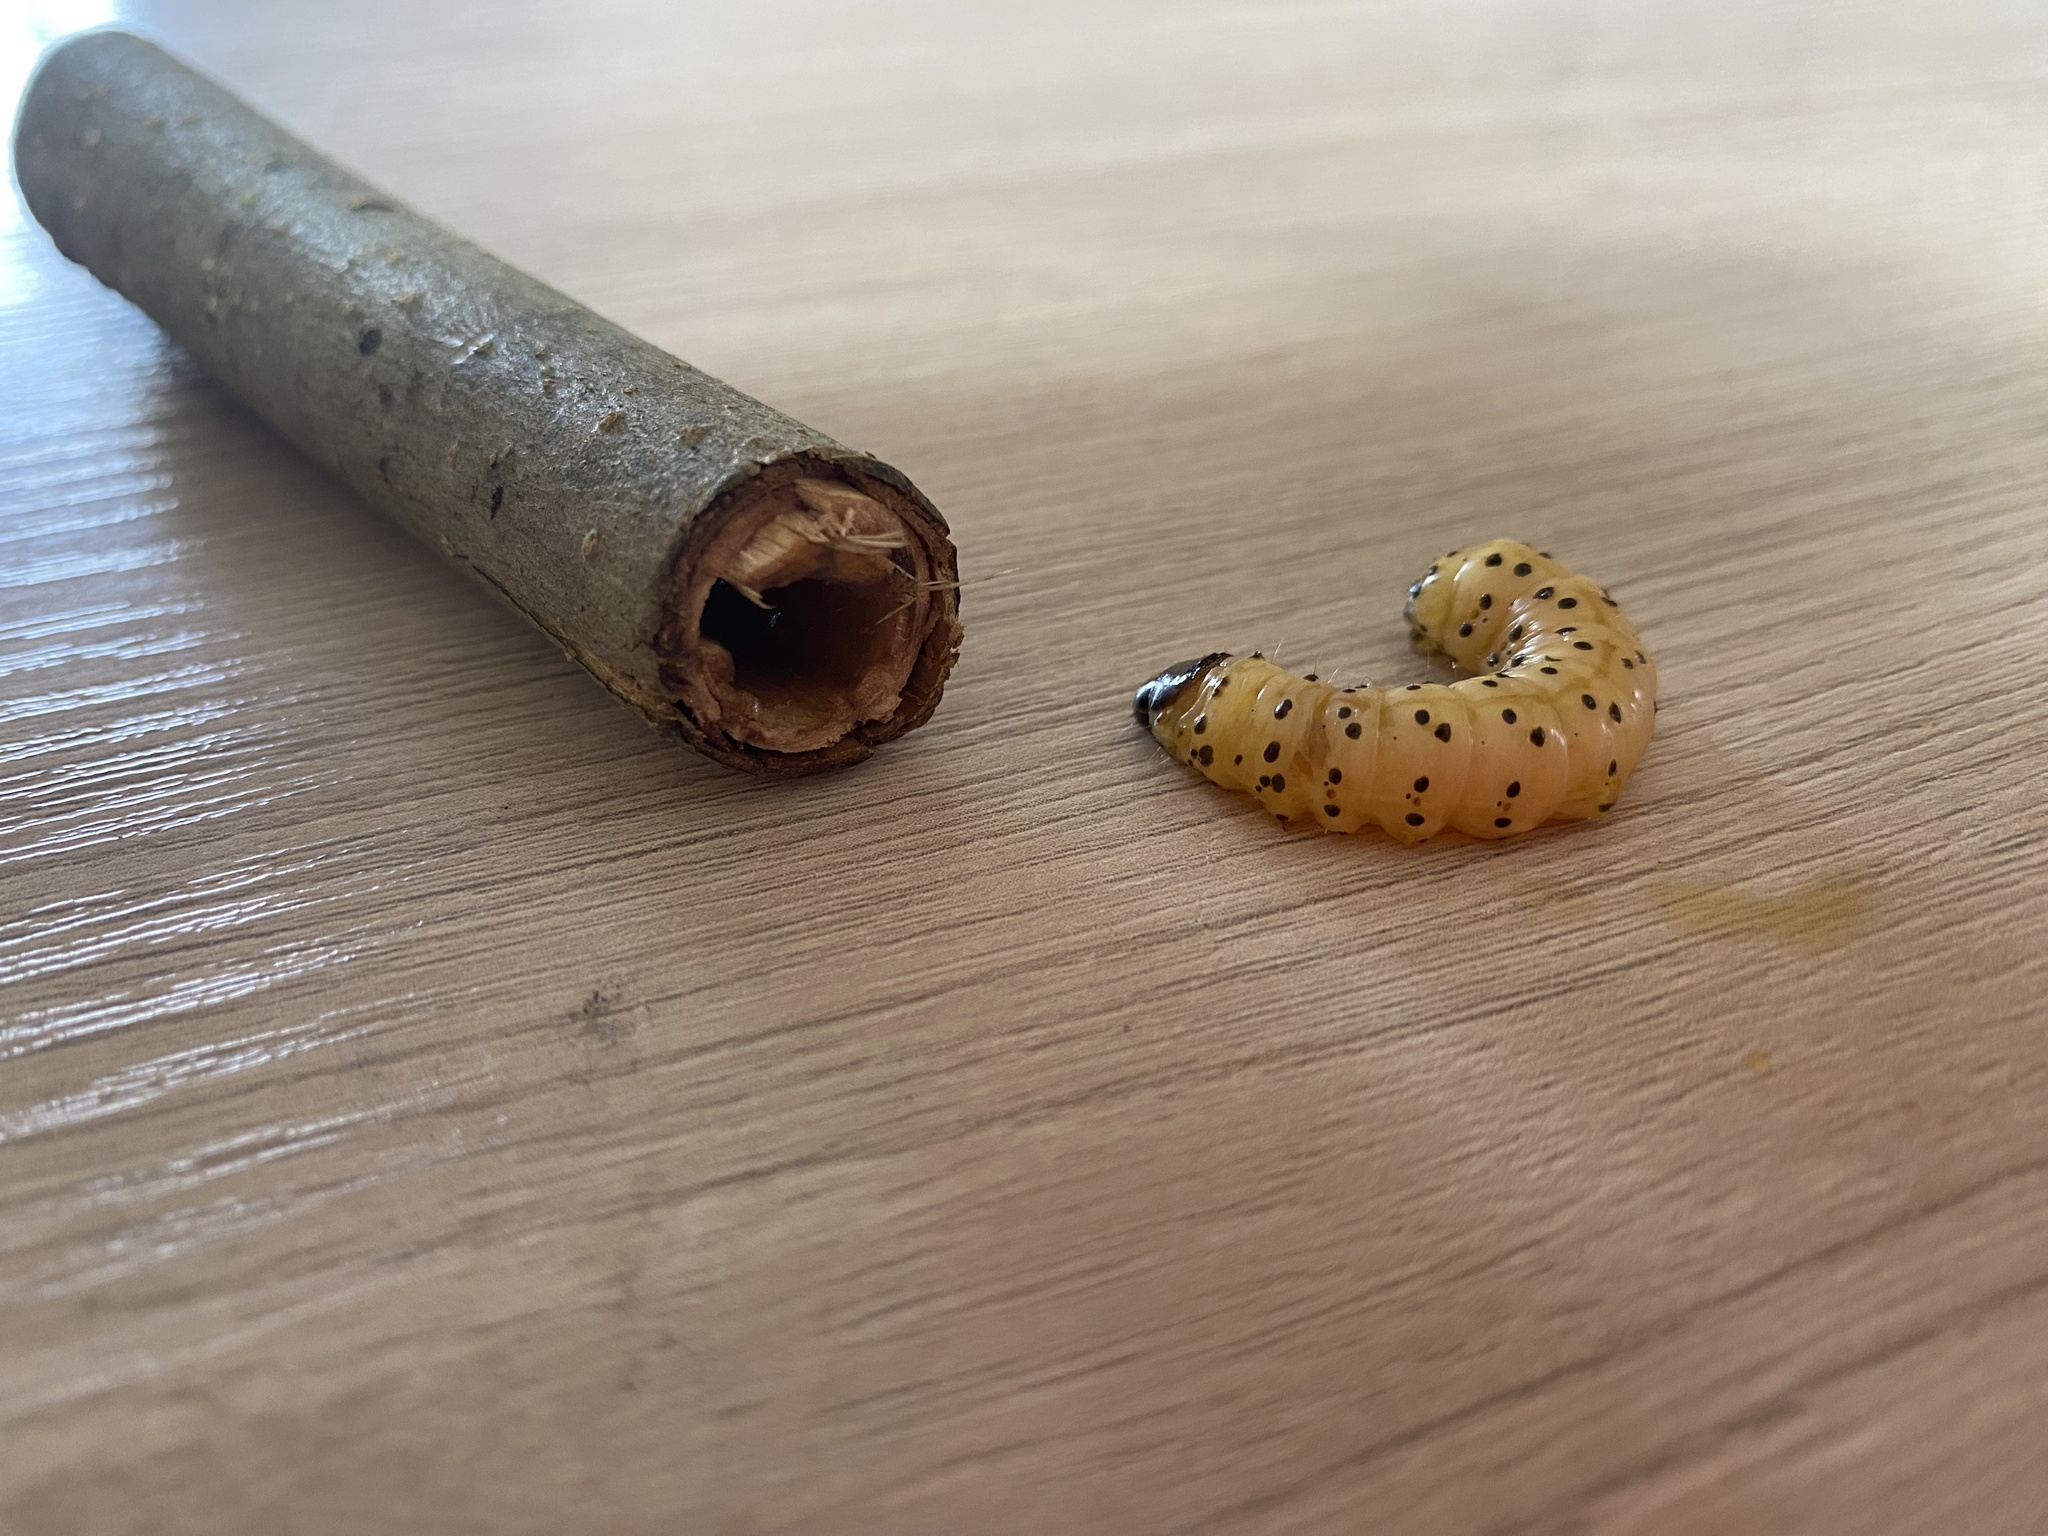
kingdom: Animalia
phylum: Arthropoda
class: Insecta
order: Lepidoptera
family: Cossidae
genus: Zeuzera
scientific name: Zeuzera pyrina
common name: Leopard moth
